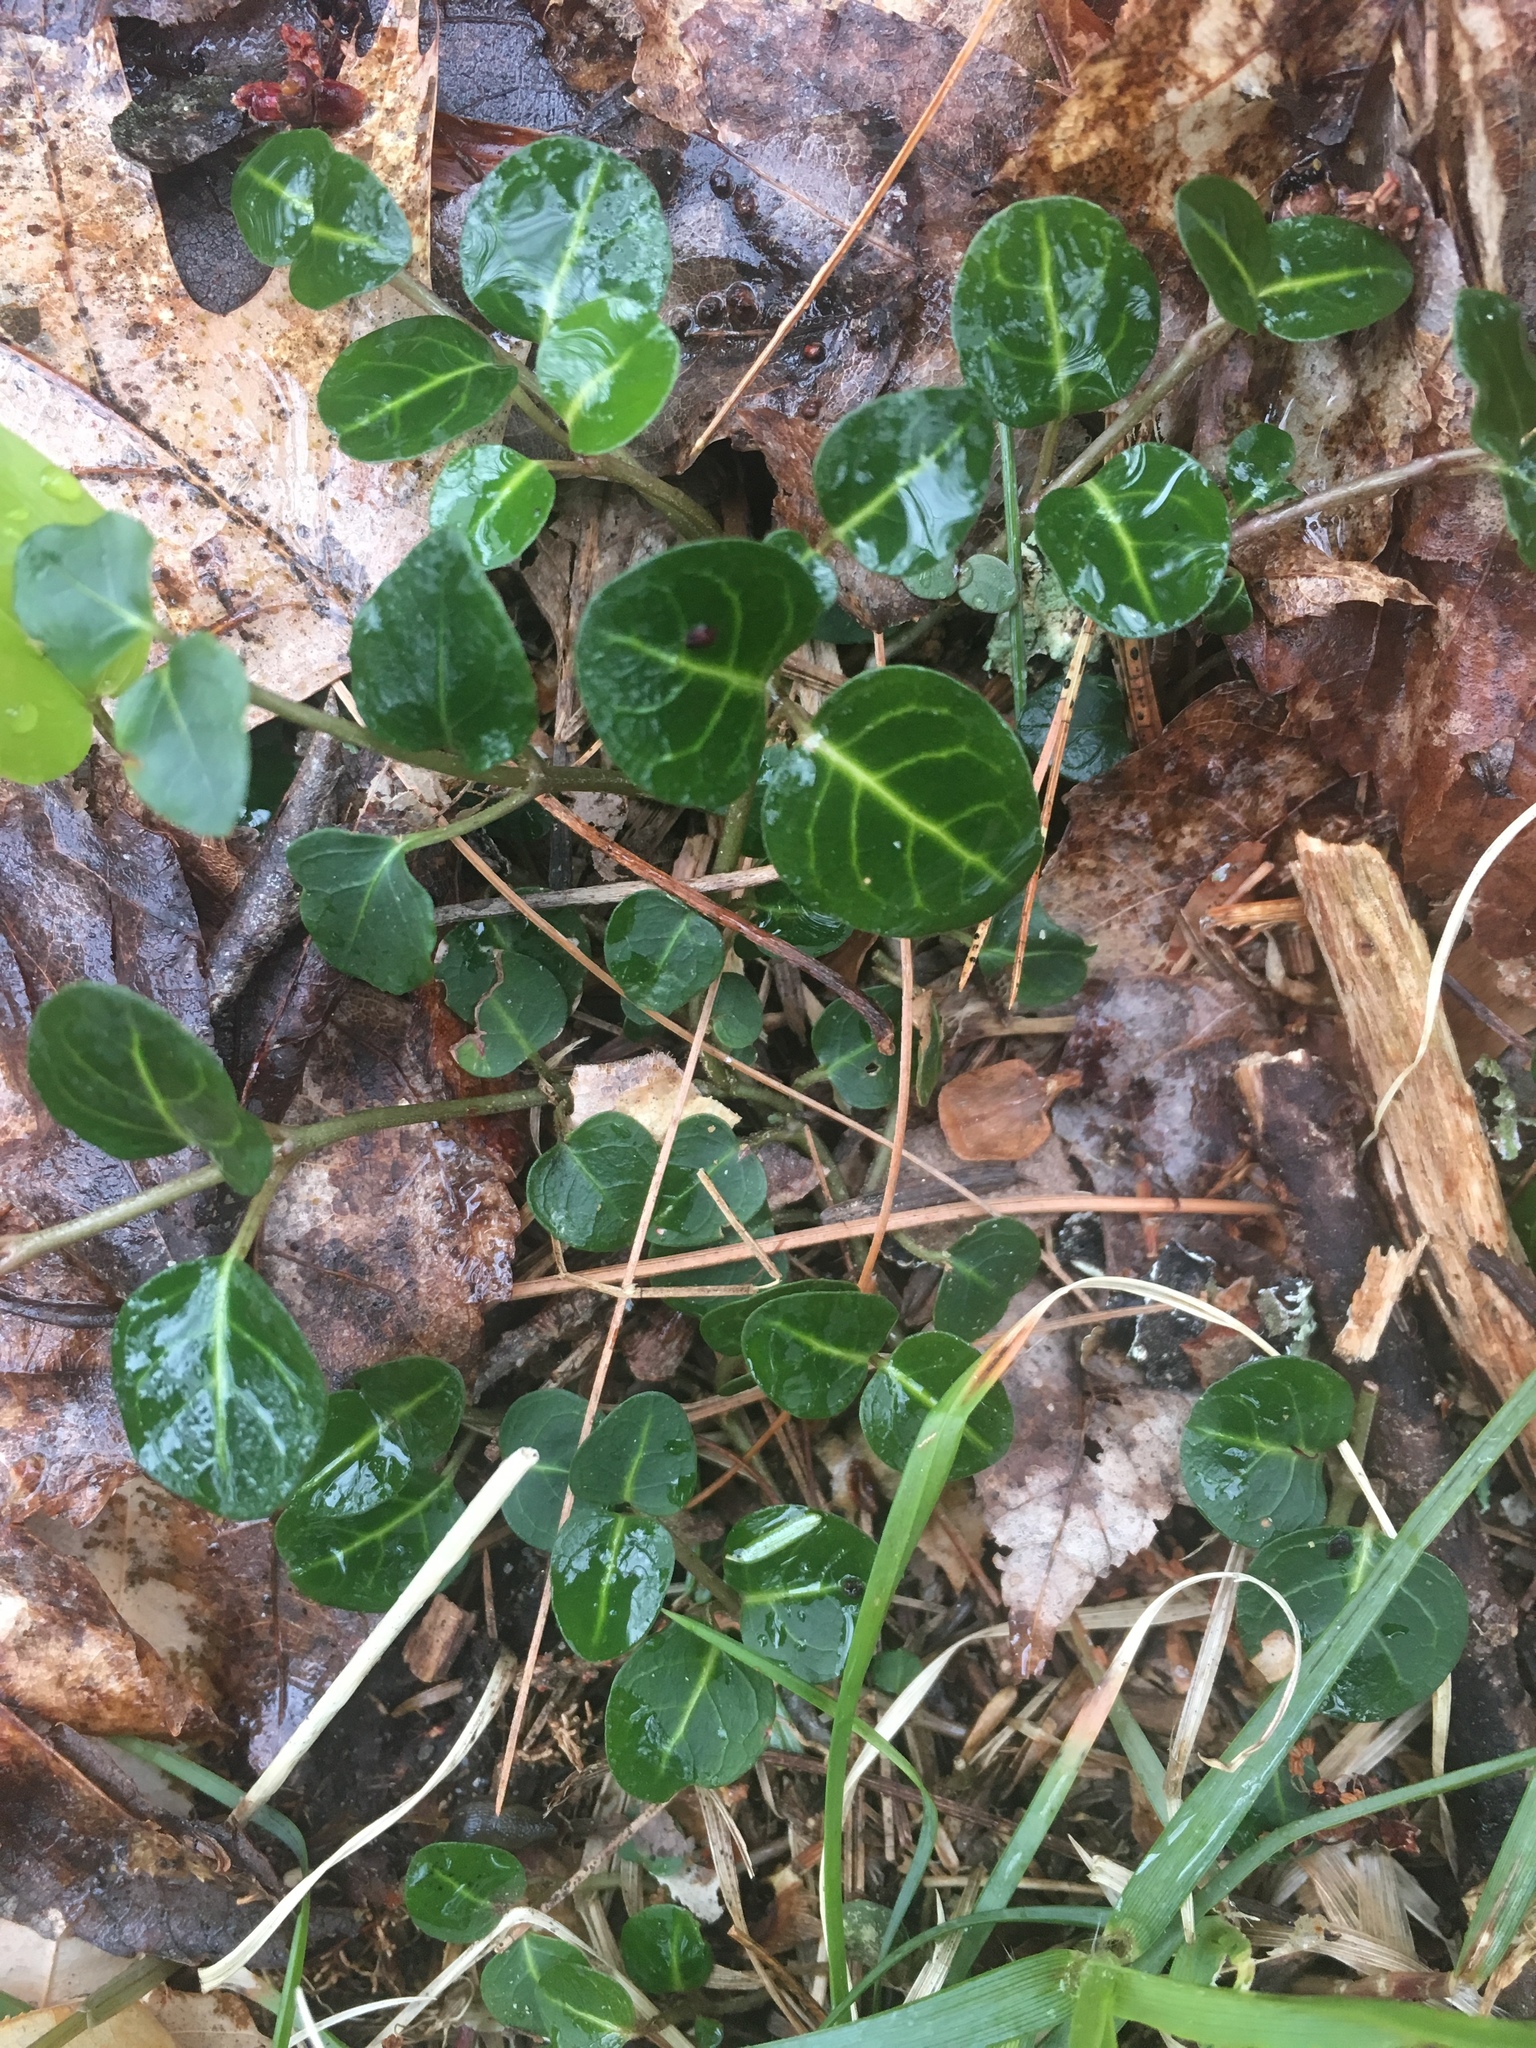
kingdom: Plantae
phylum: Tracheophyta
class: Magnoliopsida
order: Gentianales
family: Rubiaceae
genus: Mitchella
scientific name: Mitchella repens
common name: Partridge-berry
